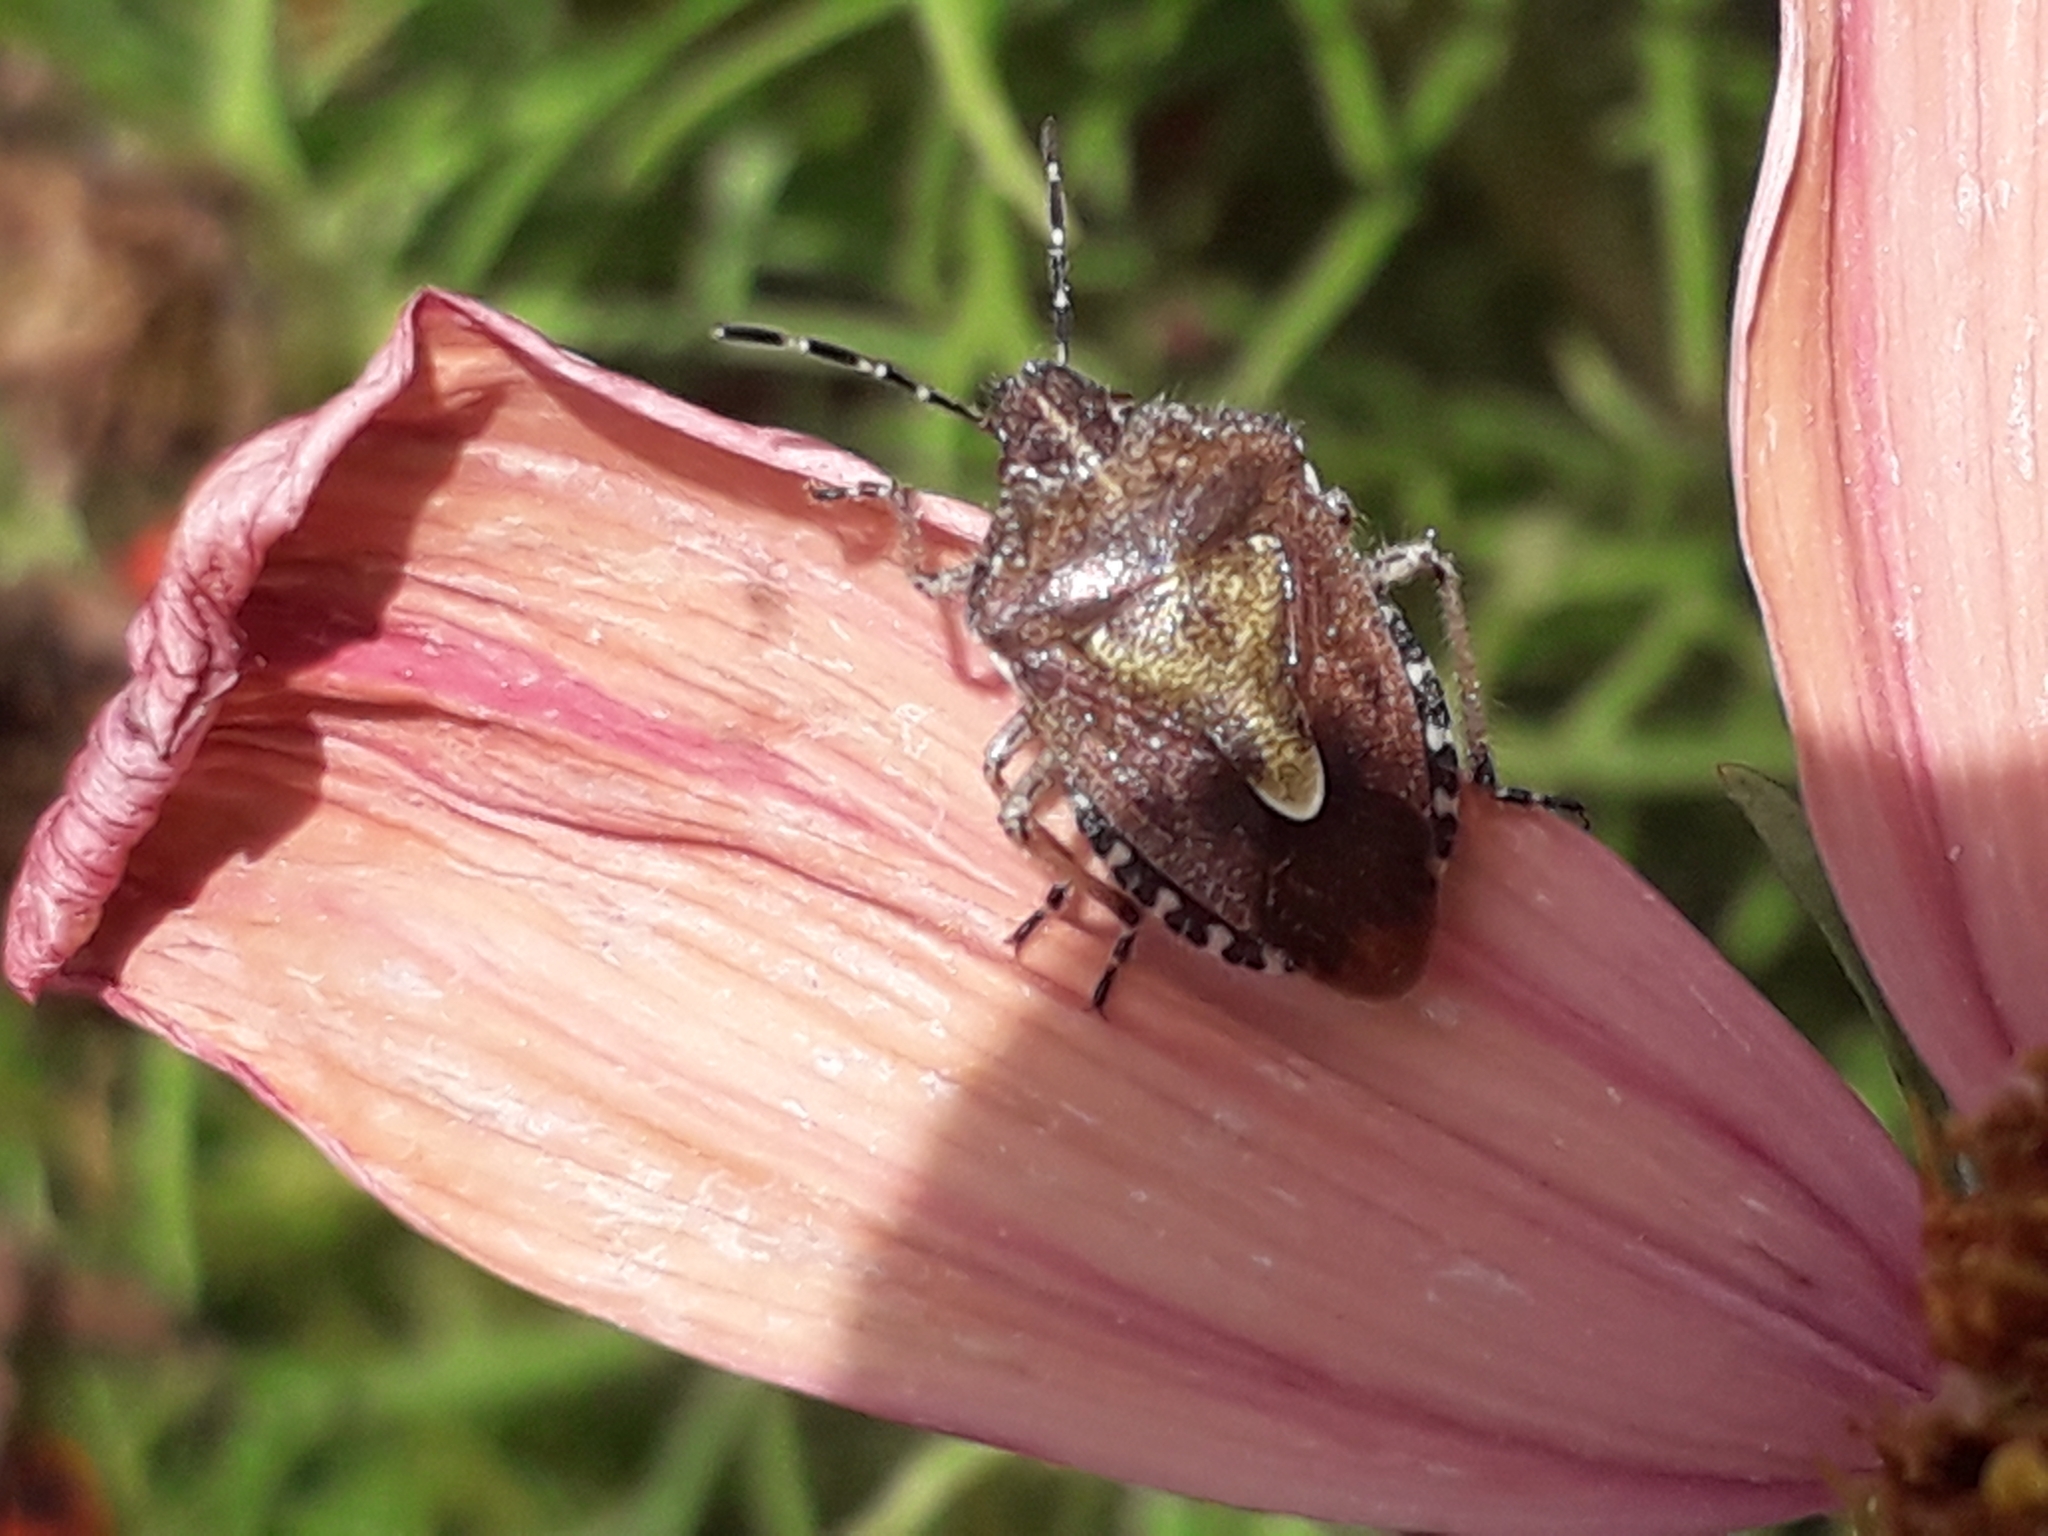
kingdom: Animalia
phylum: Arthropoda
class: Insecta
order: Hemiptera
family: Pentatomidae
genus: Dolycoris
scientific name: Dolycoris baccarum
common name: Sloe bug
